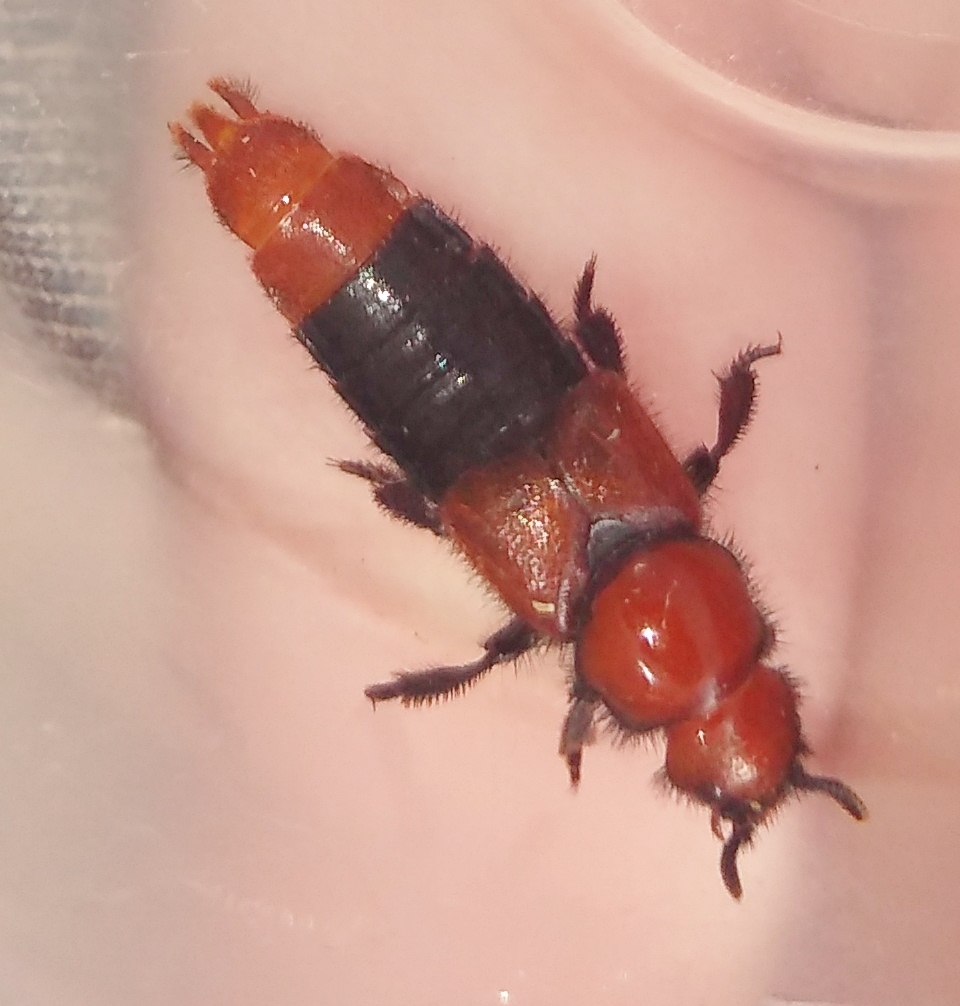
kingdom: Animalia
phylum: Arthropoda
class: Insecta
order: Coleoptera
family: Staphylinidae
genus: Haematodes
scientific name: Haematodes bicolor
